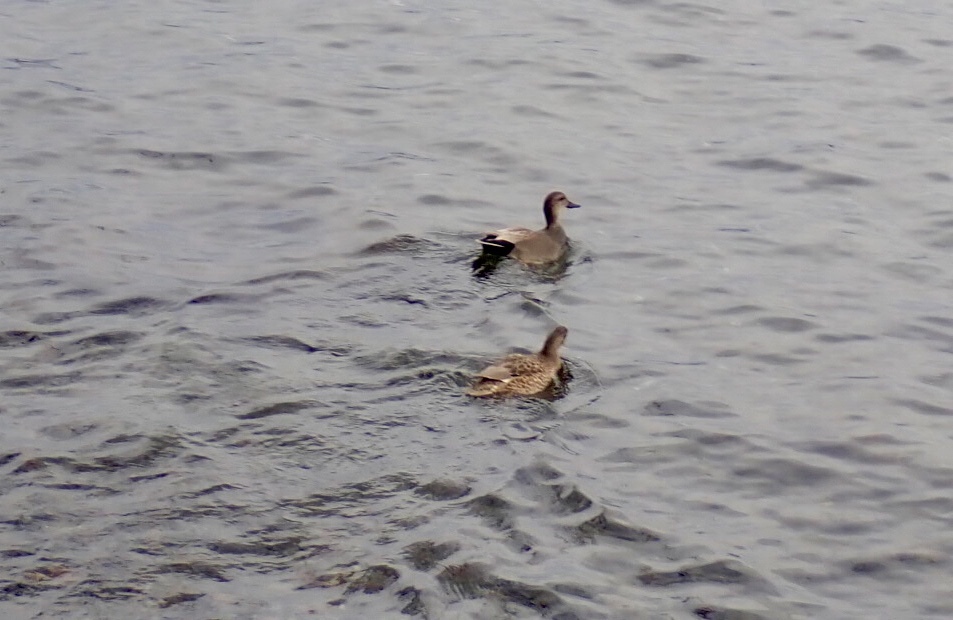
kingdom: Animalia
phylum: Chordata
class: Aves
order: Anseriformes
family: Anatidae
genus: Mareca
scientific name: Mareca strepera
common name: Gadwall
